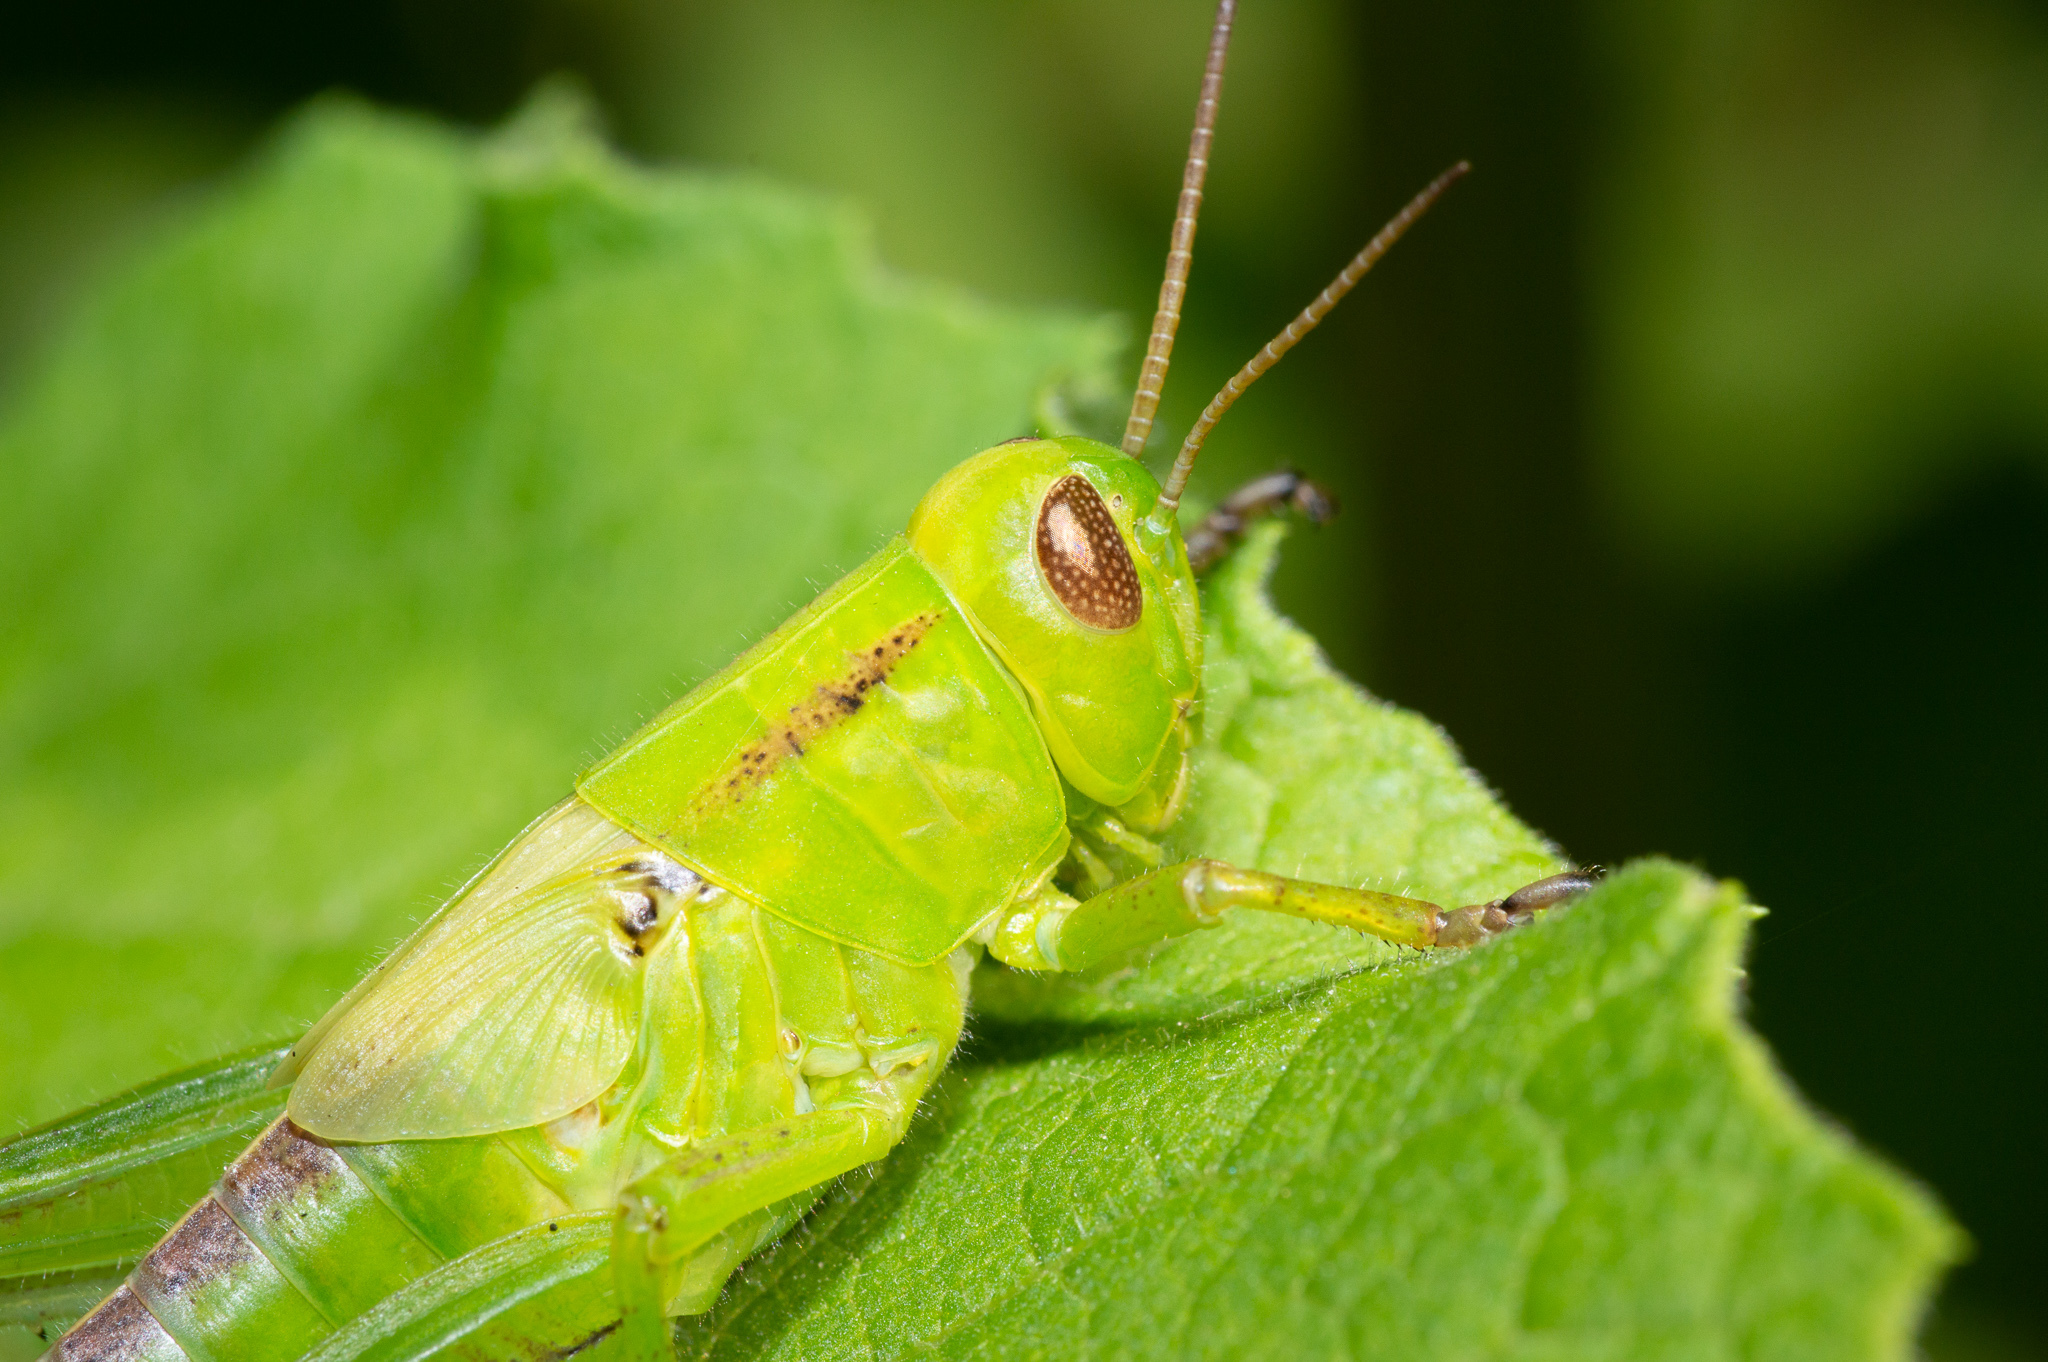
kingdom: Animalia
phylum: Arthropoda
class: Insecta
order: Orthoptera
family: Acrididae
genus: Melanoplus
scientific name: Melanoplus
